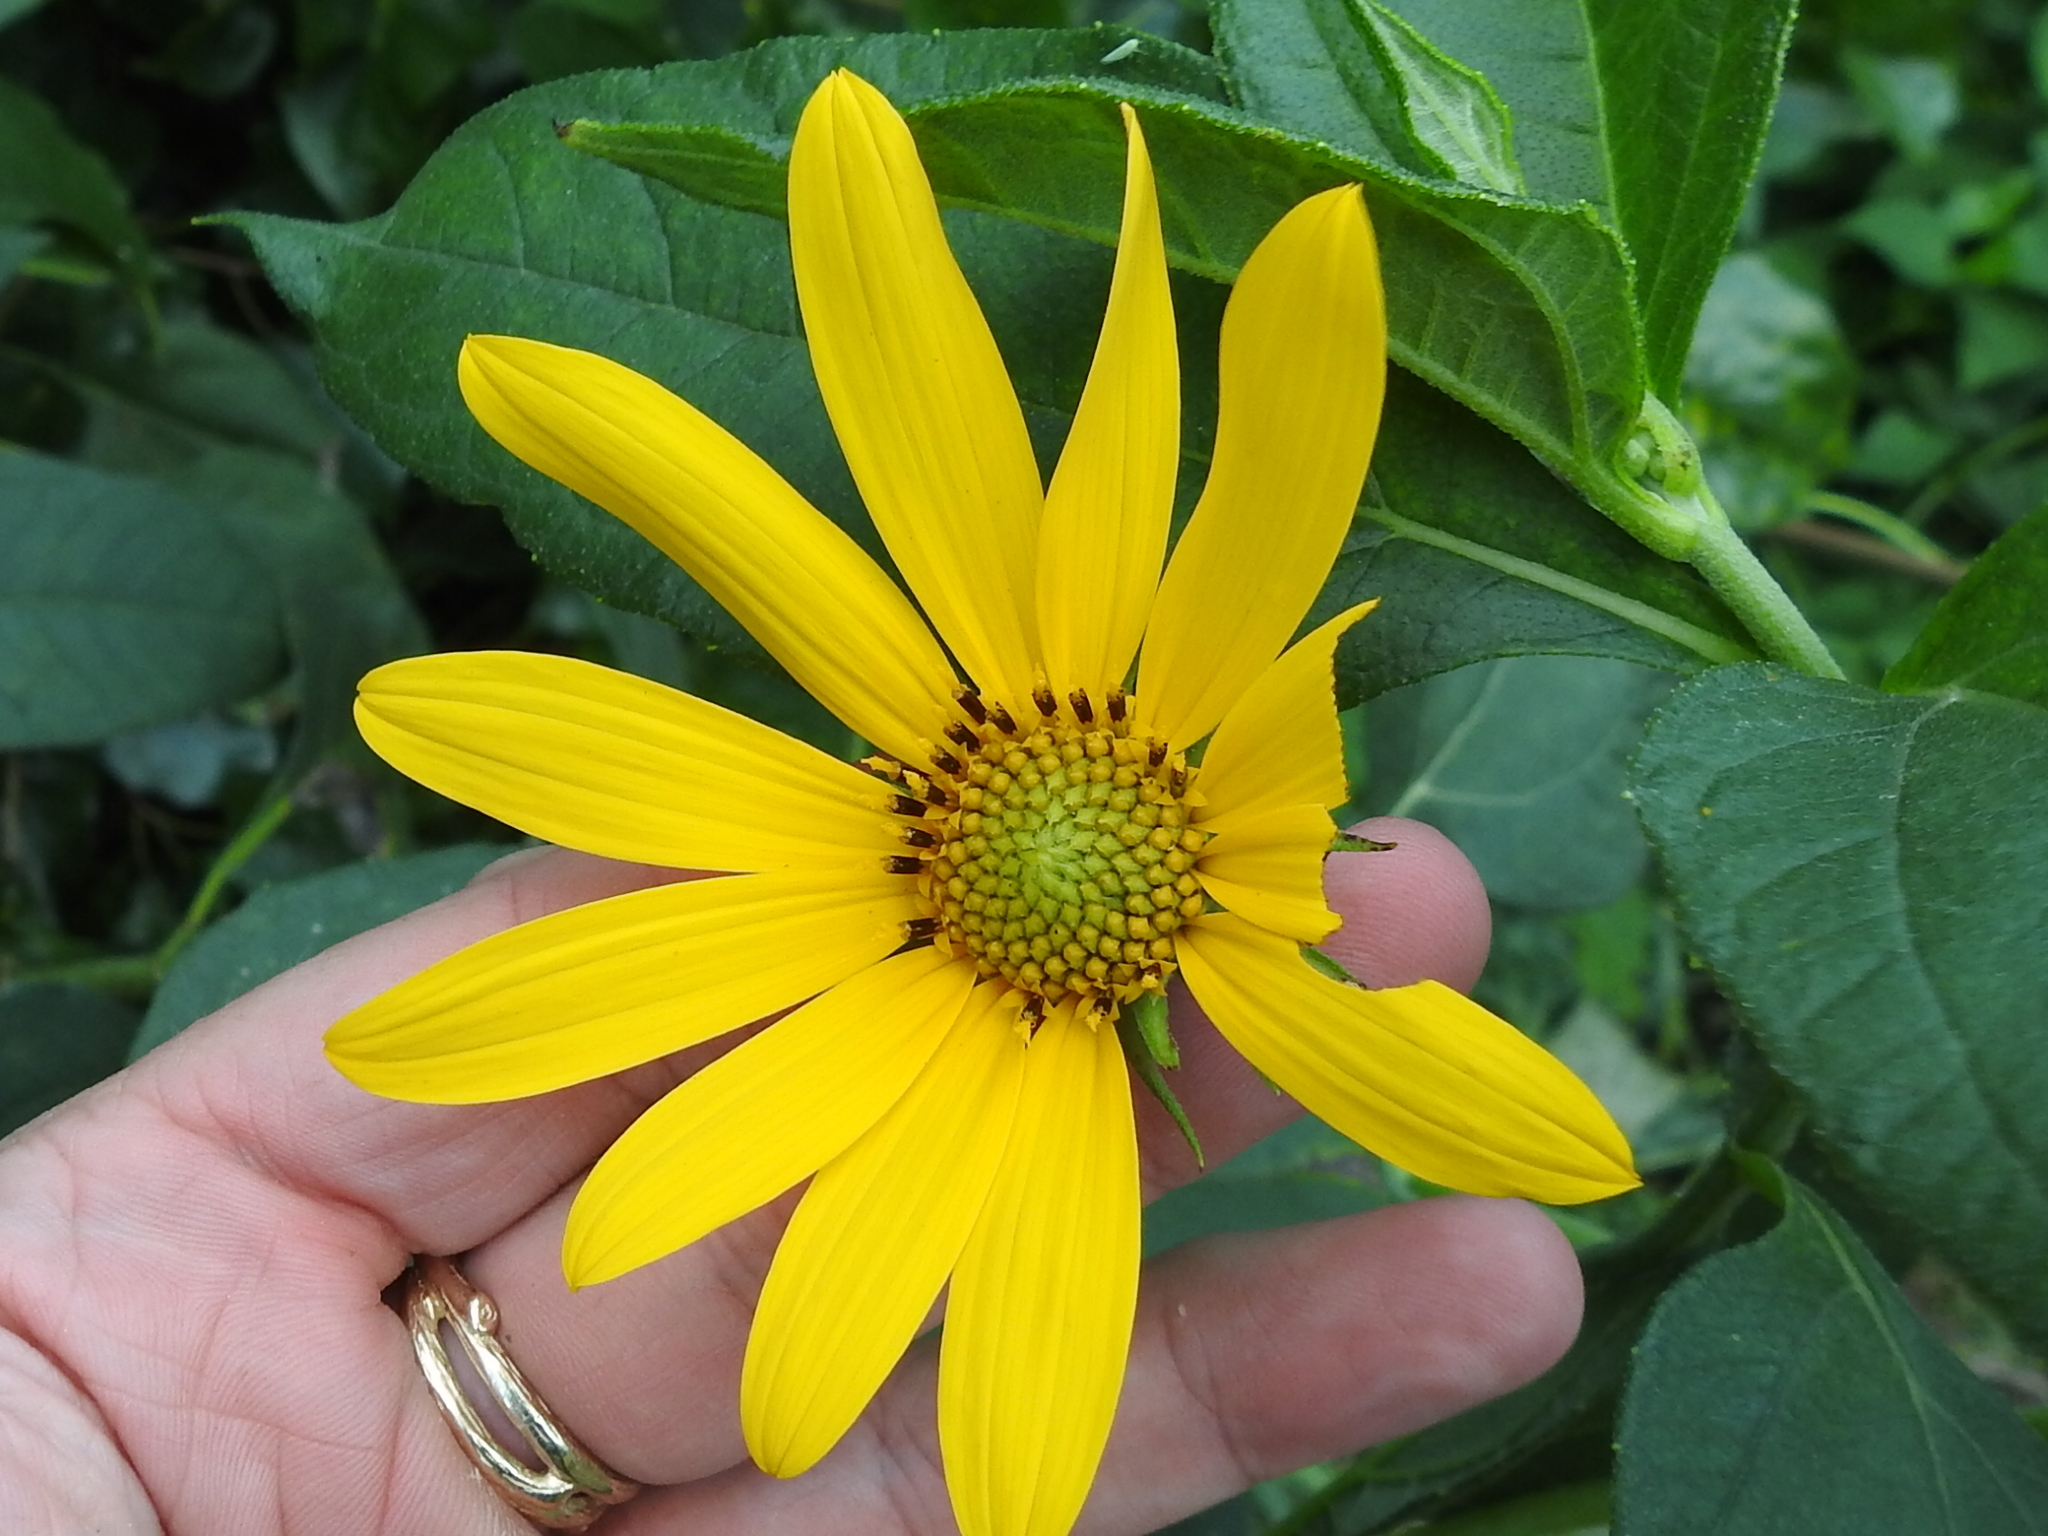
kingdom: Plantae
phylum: Tracheophyta
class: Magnoliopsida
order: Asterales
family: Asteraceae
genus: Helianthus
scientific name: Helianthus tuberosus
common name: Jerusalem artichoke
